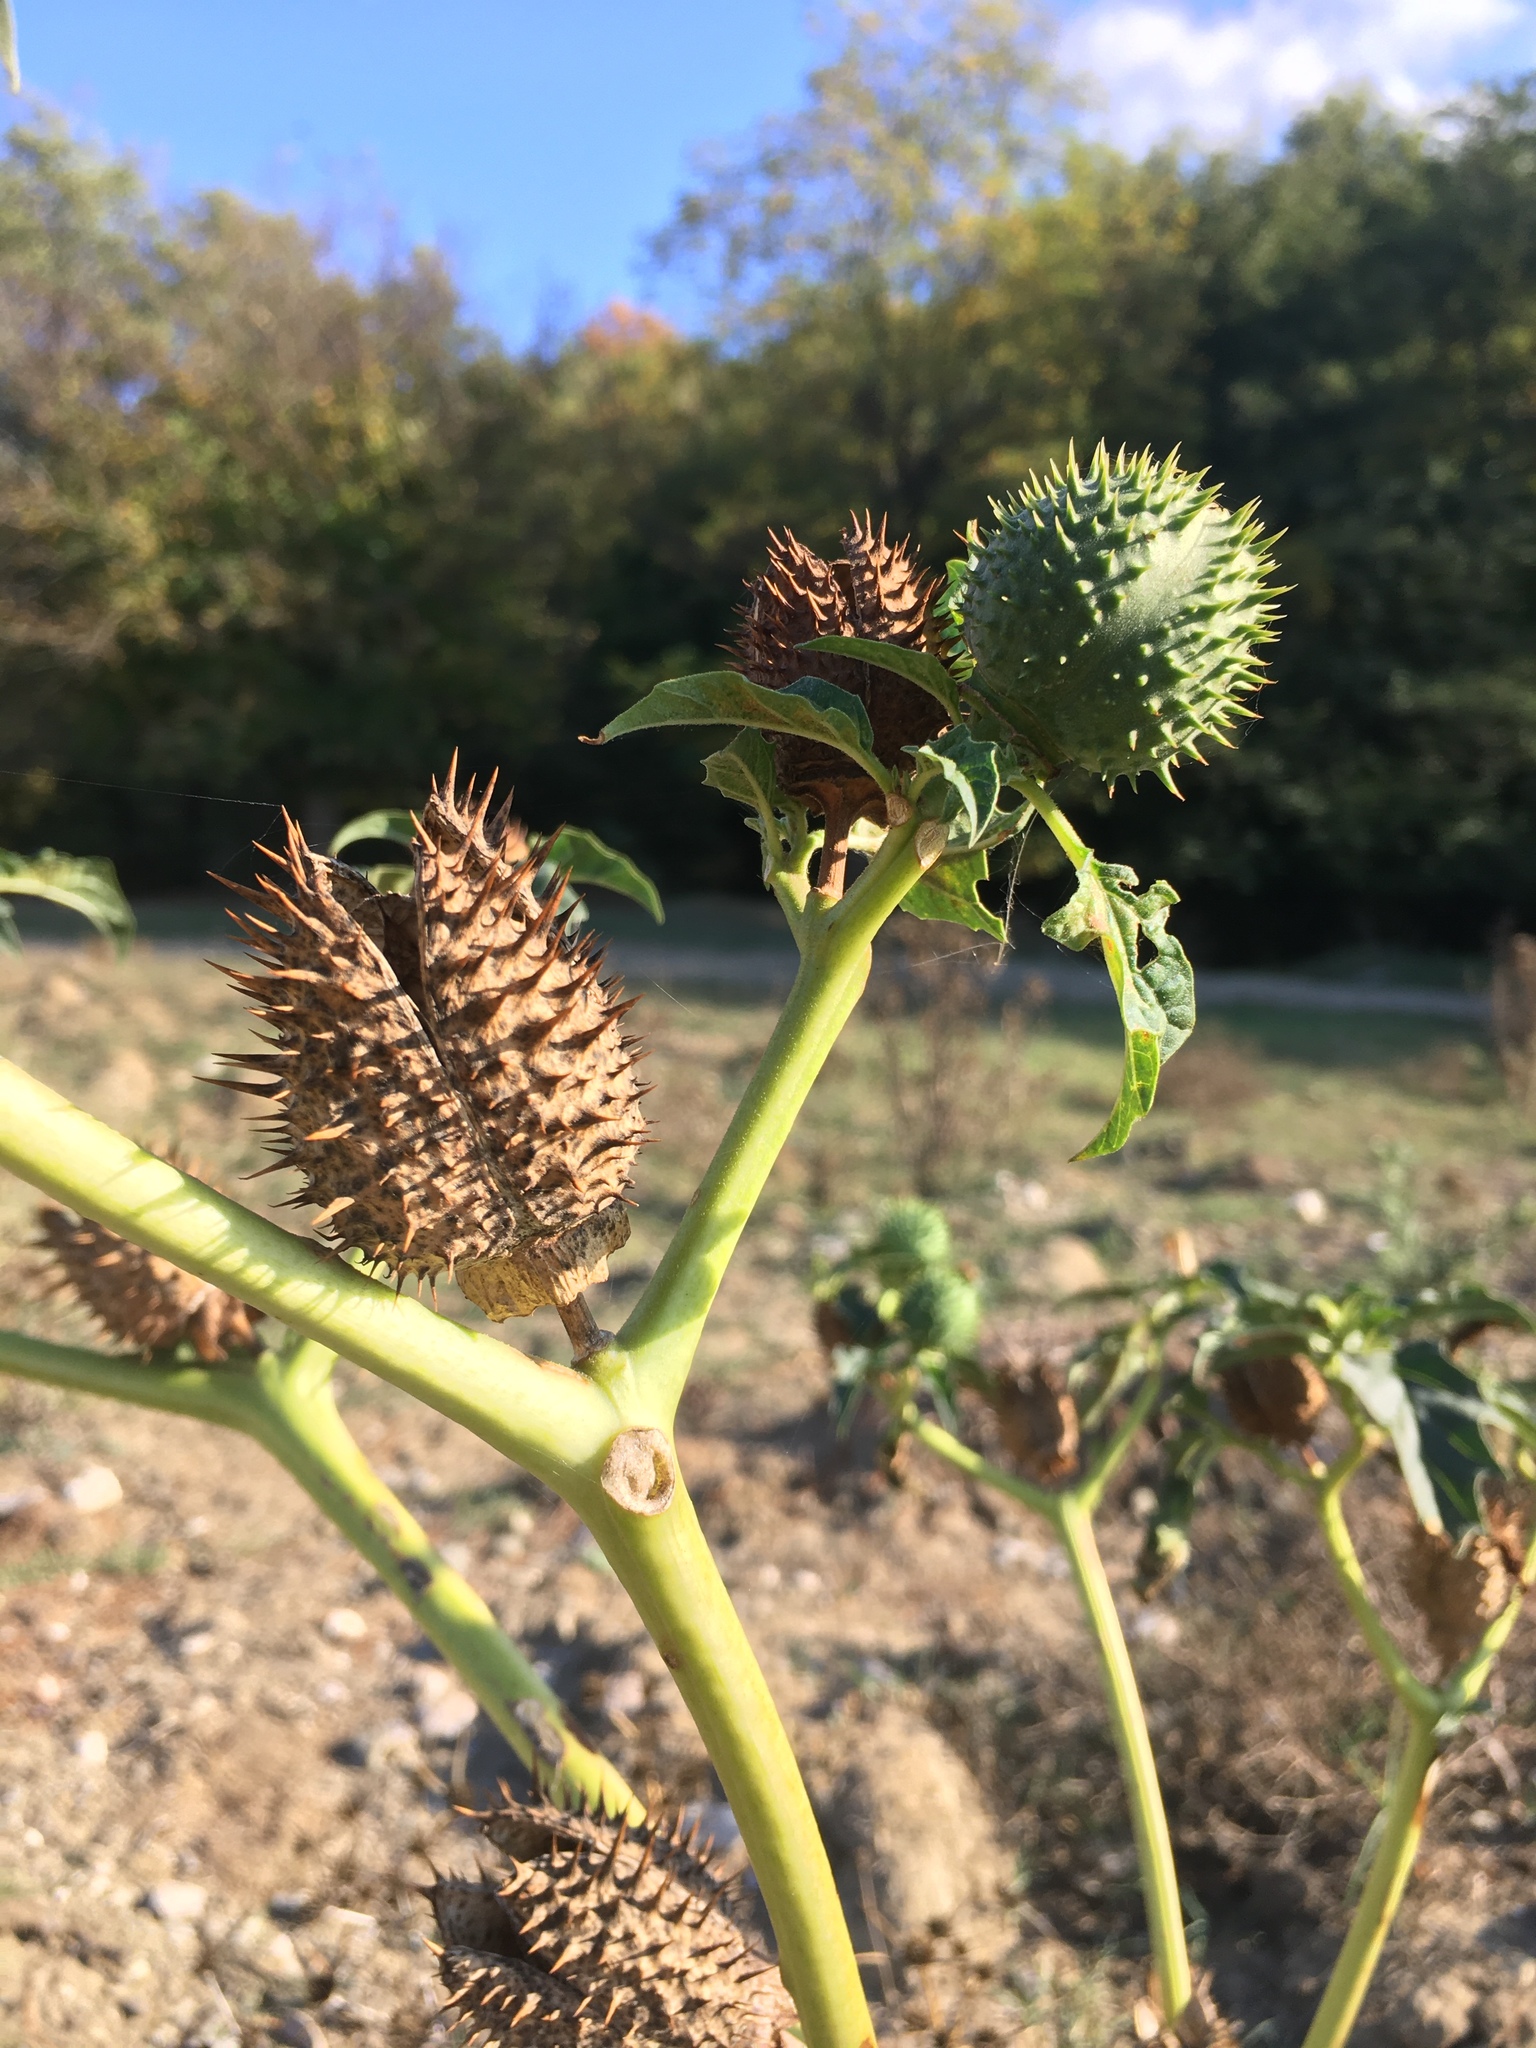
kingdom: Plantae
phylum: Tracheophyta
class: Magnoliopsida
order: Solanales
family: Solanaceae
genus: Datura
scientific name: Datura stramonium
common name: Thorn-apple
